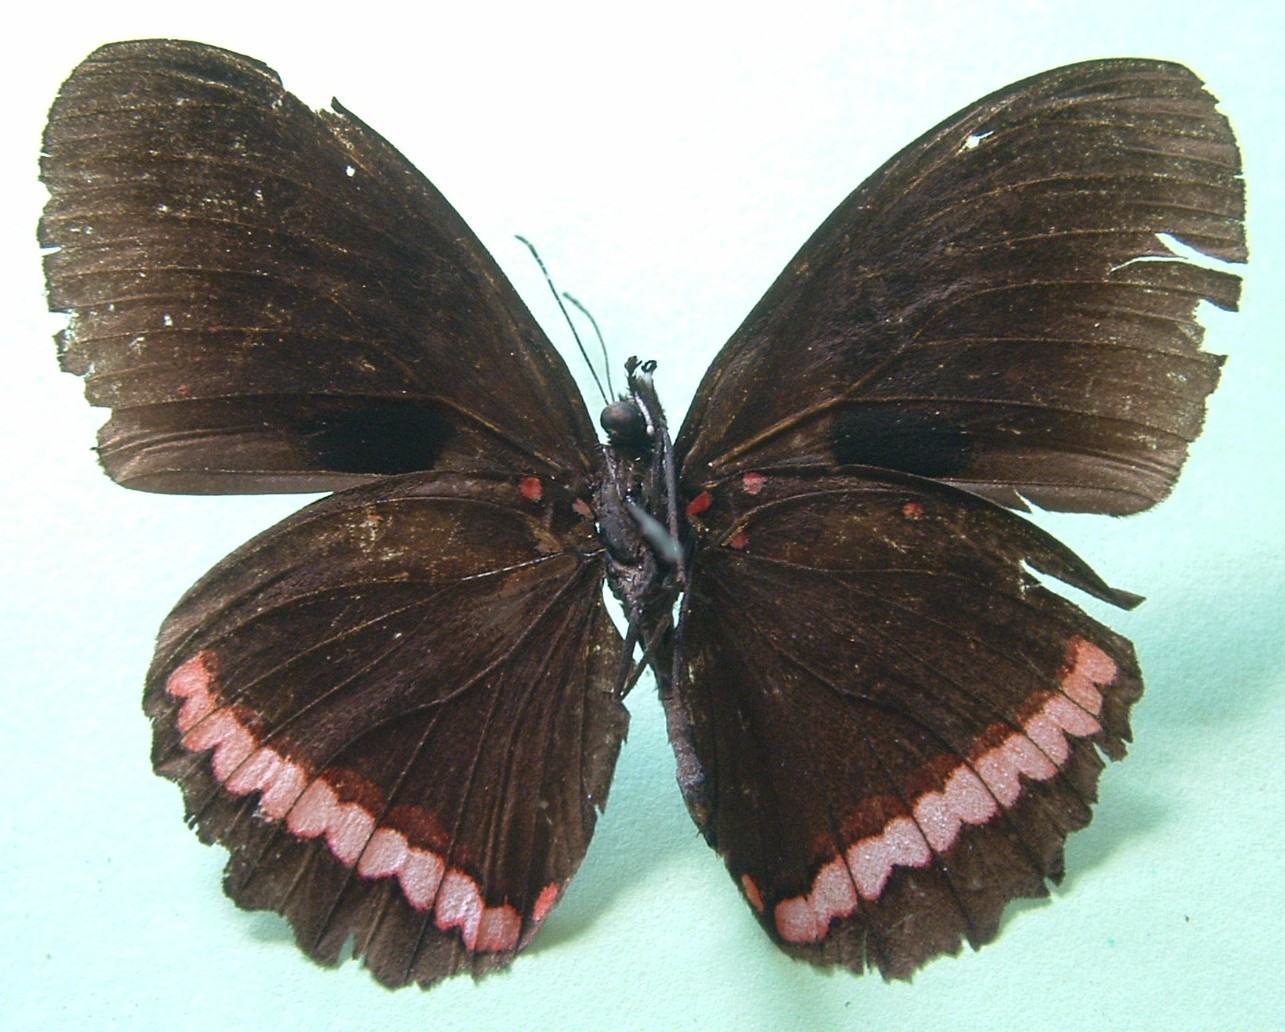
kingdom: Animalia
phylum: Arthropoda
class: Insecta
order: Lepidoptera
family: Nymphalidae
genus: Biblis
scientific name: Biblis aganisa
